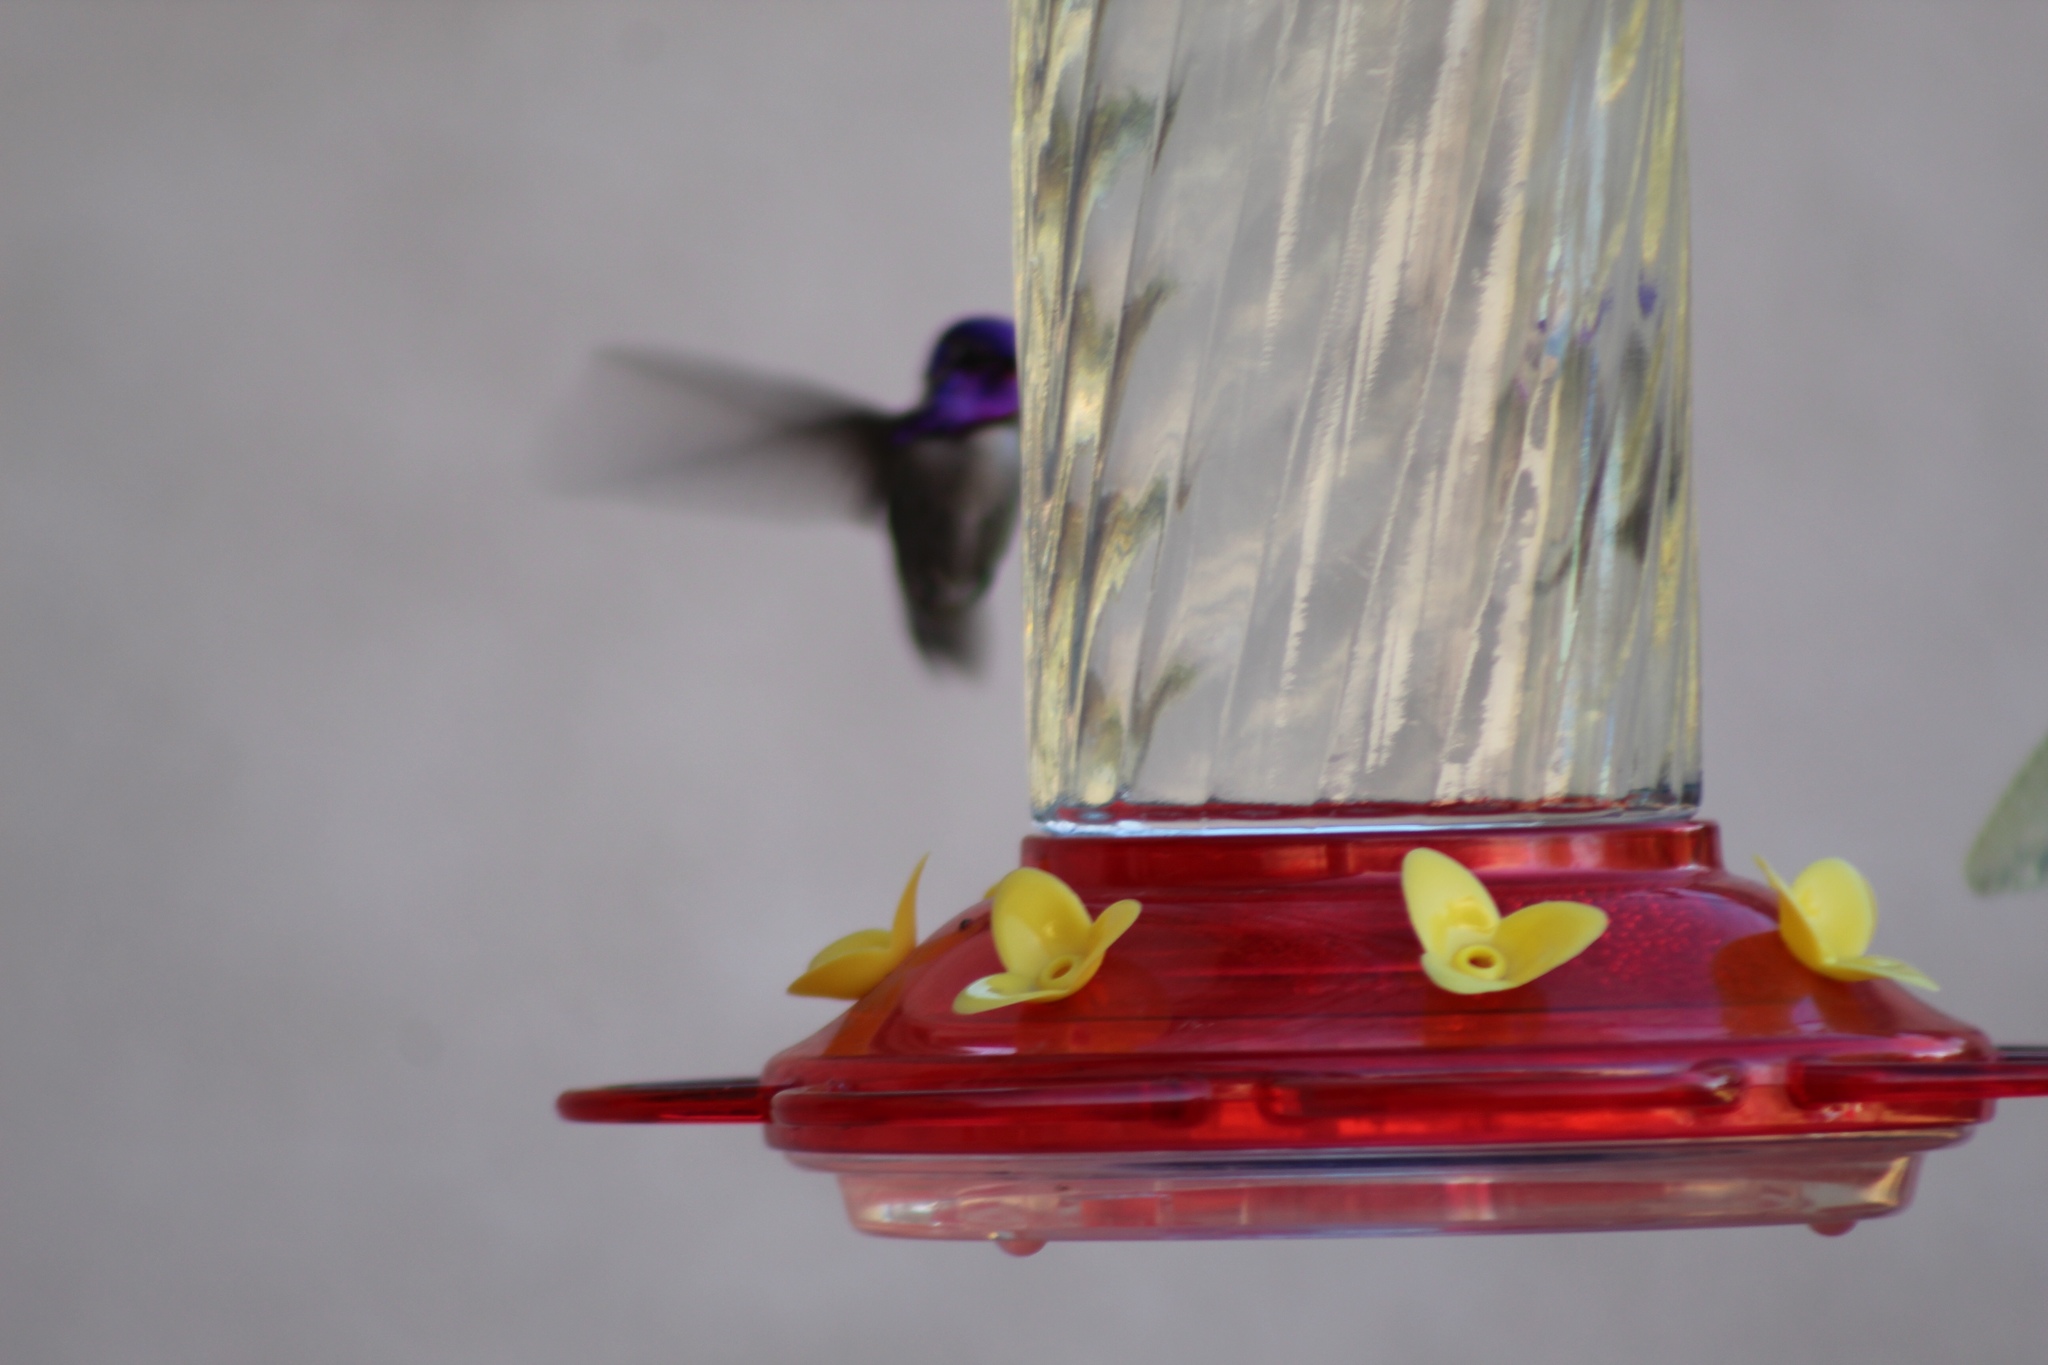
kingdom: Animalia
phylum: Chordata
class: Aves
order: Apodiformes
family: Trochilidae
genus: Calypte
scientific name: Calypte costae
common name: Costa's hummingbird
